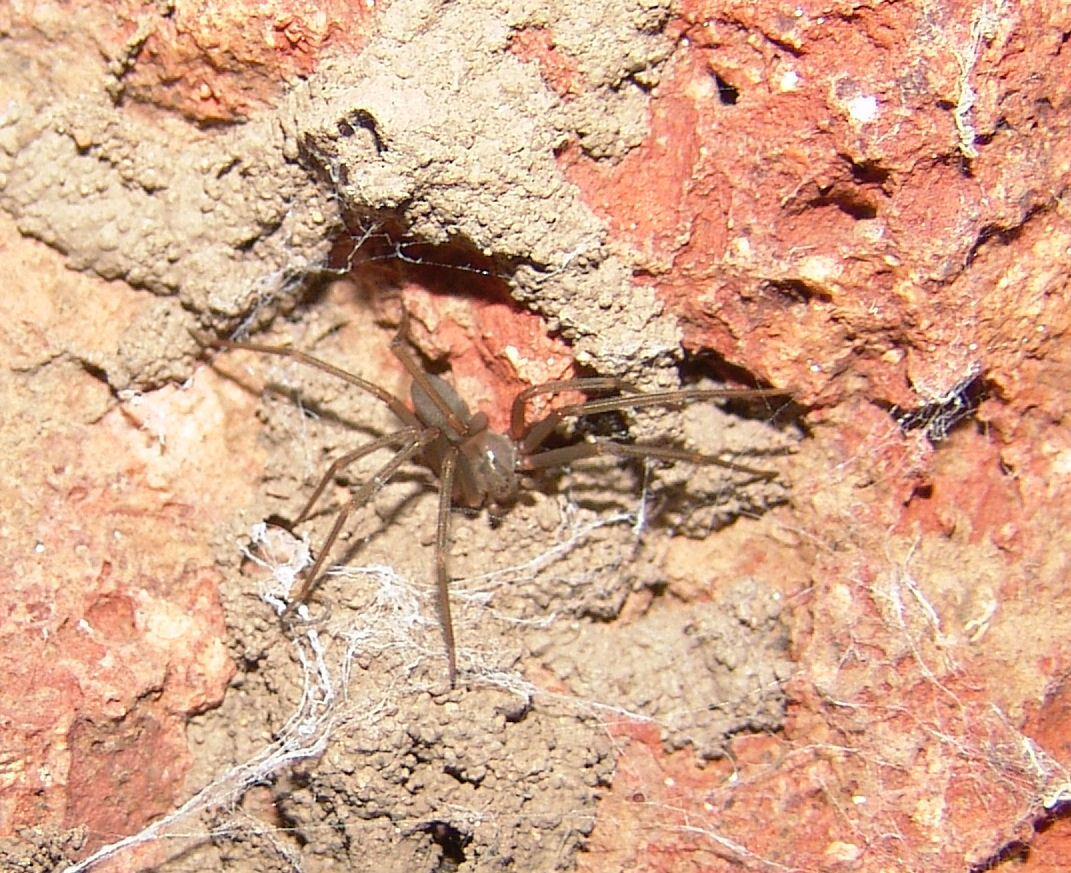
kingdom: Animalia
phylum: Arthropoda
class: Arachnida
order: Araneae
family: Sicariidae
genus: Loxosceles
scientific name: Loxosceles apachea
